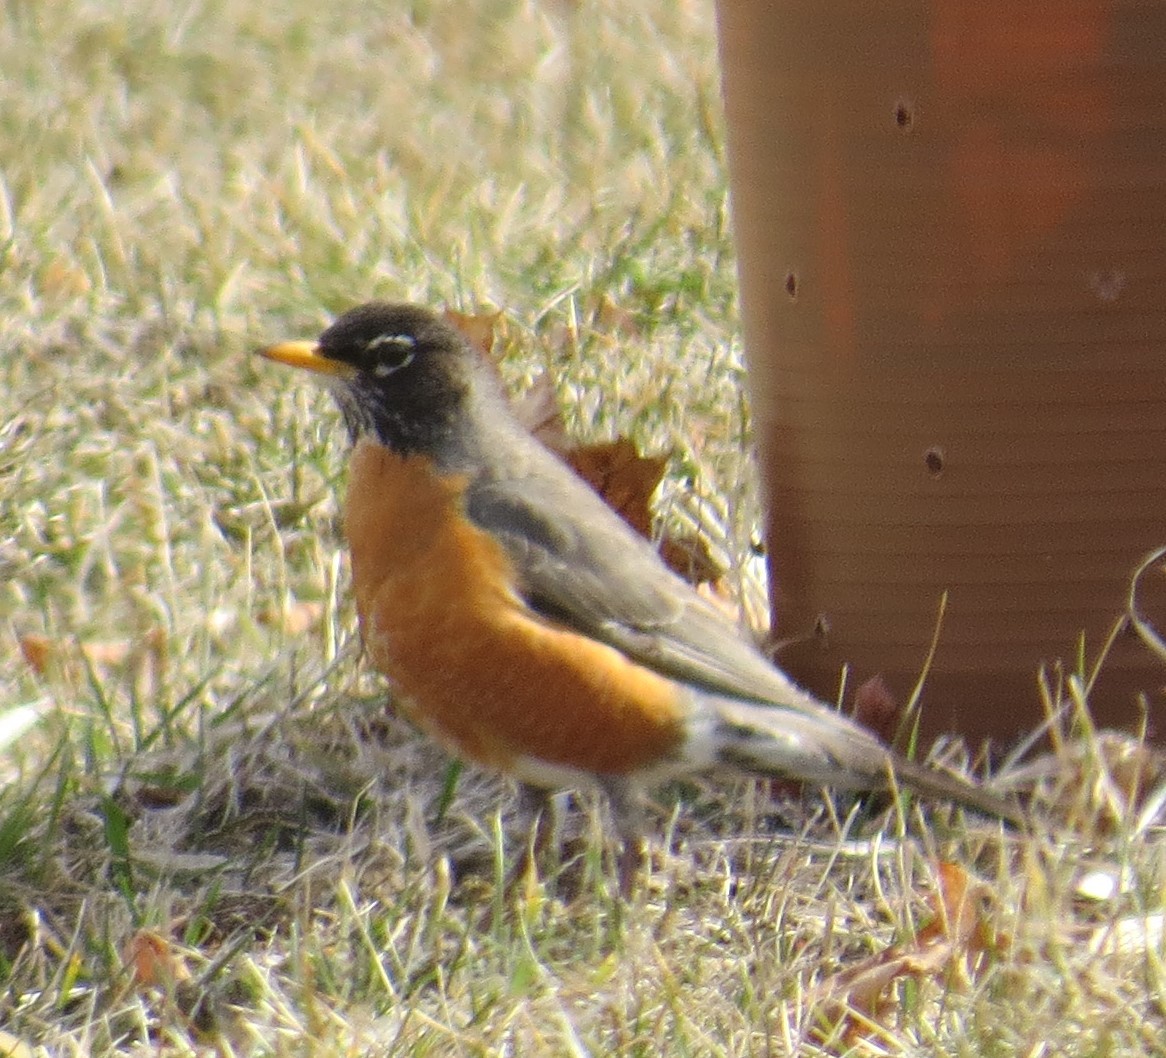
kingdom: Animalia
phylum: Chordata
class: Aves
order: Passeriformes
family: Turdidae
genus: Turdus
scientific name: Turdus migratorius
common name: American robin
